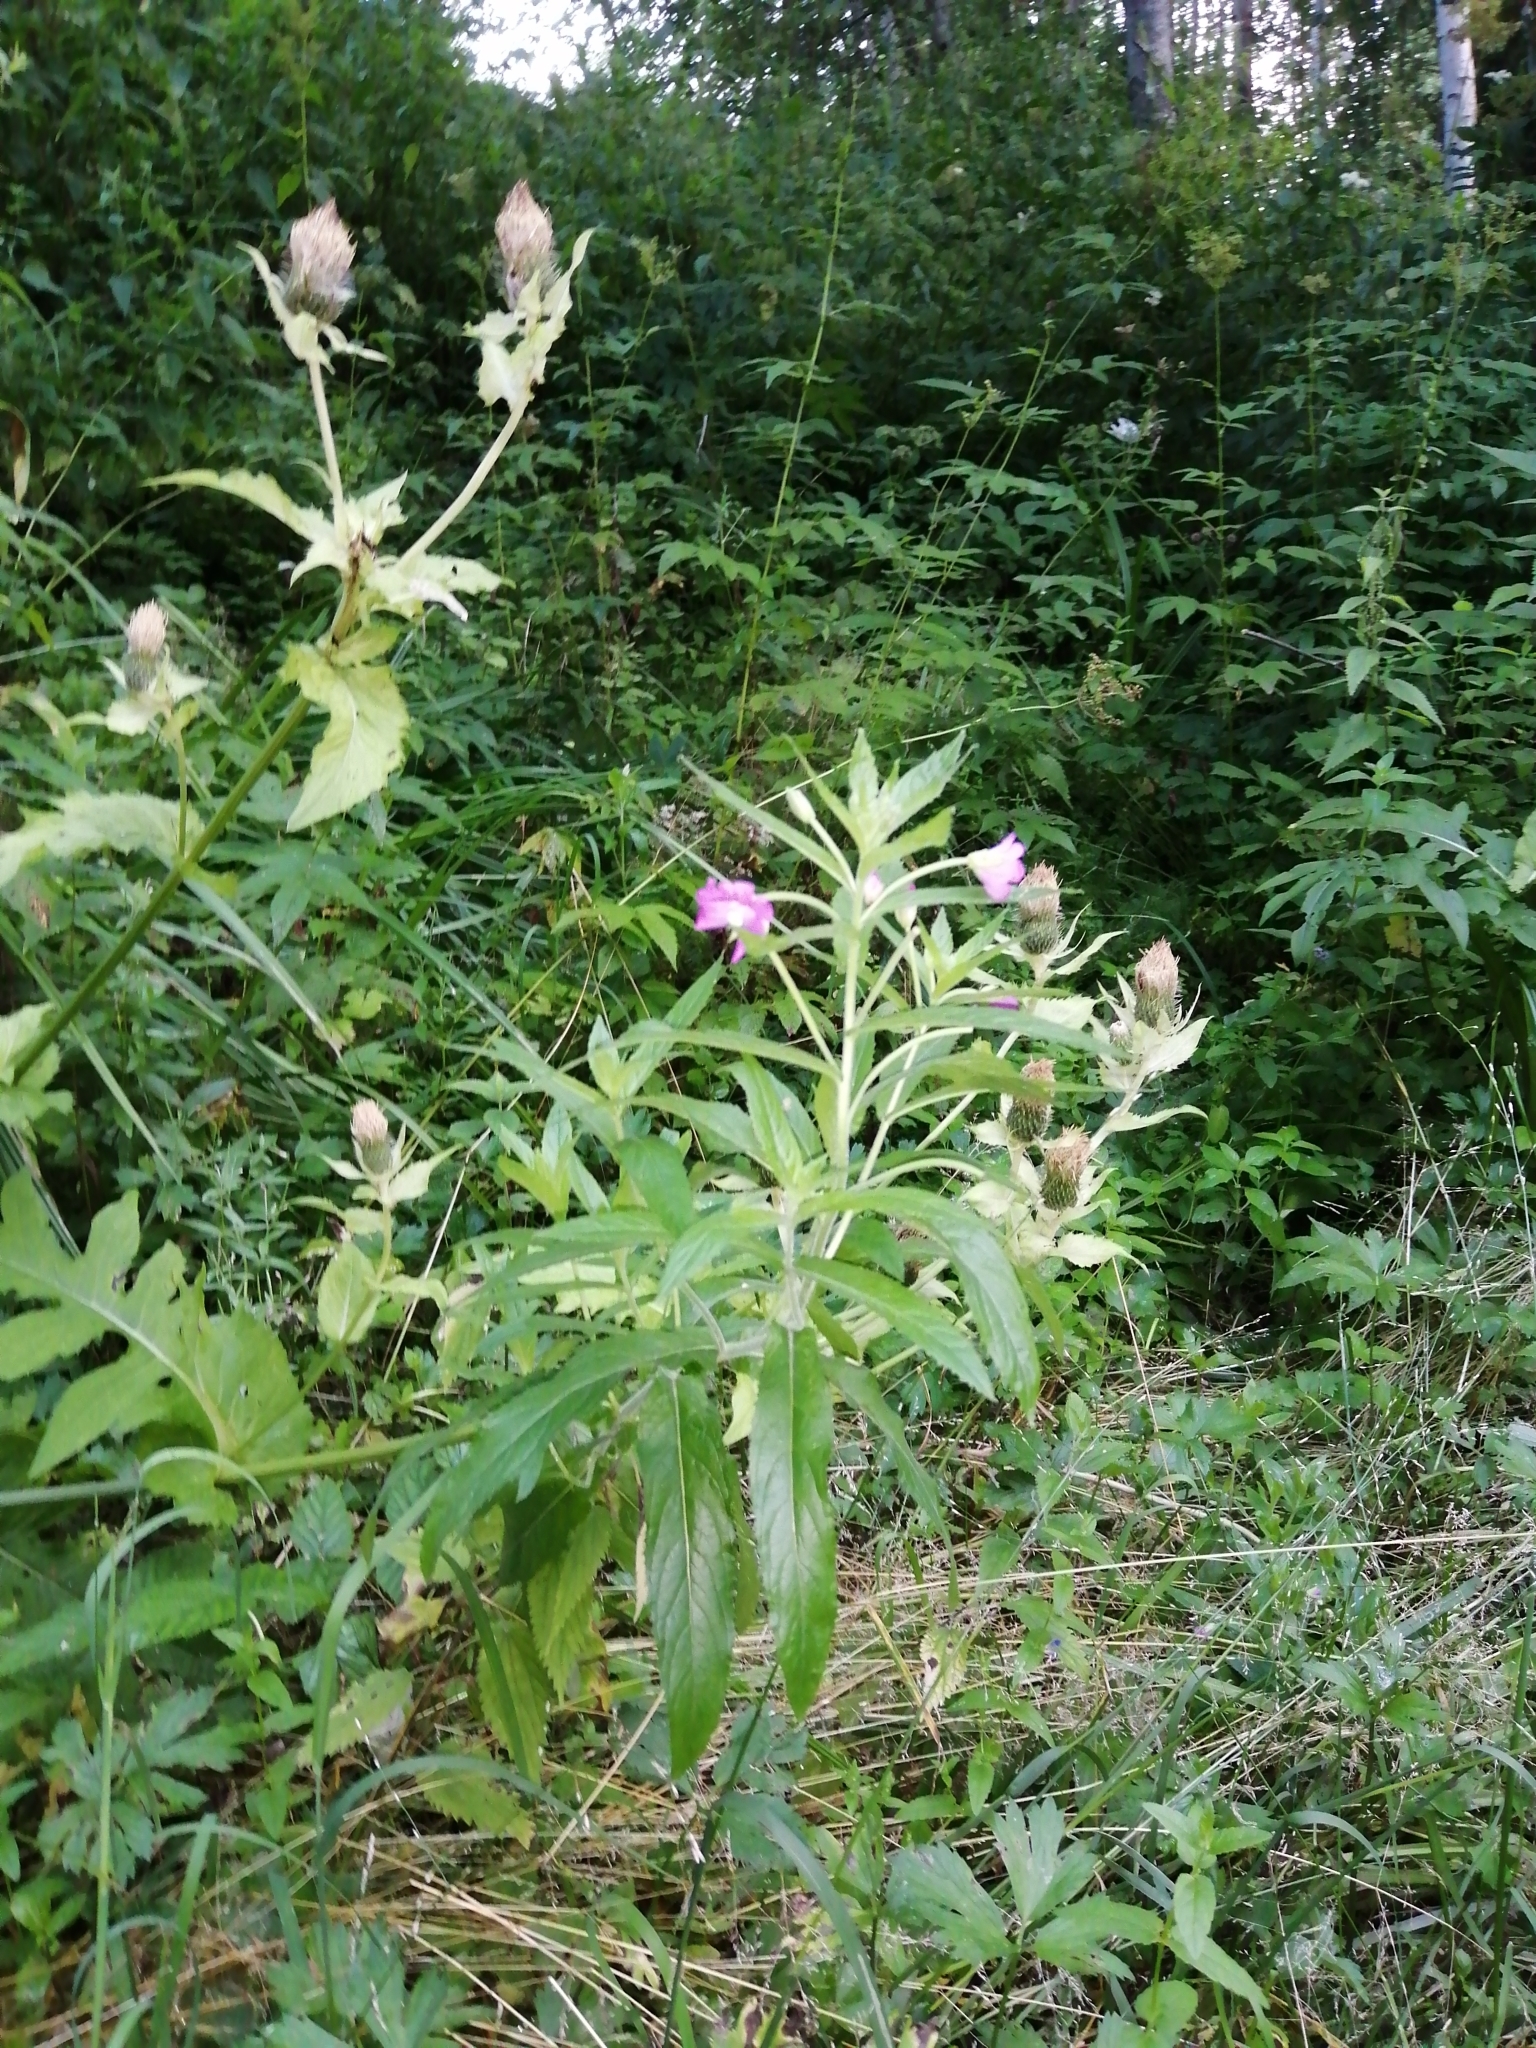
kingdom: Plantae
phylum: Tracheophyta
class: Magnoliopsida
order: Myrtales
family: Onagraceae
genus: Epilobium
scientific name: Epilobium hirsutum
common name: Great willowherb
